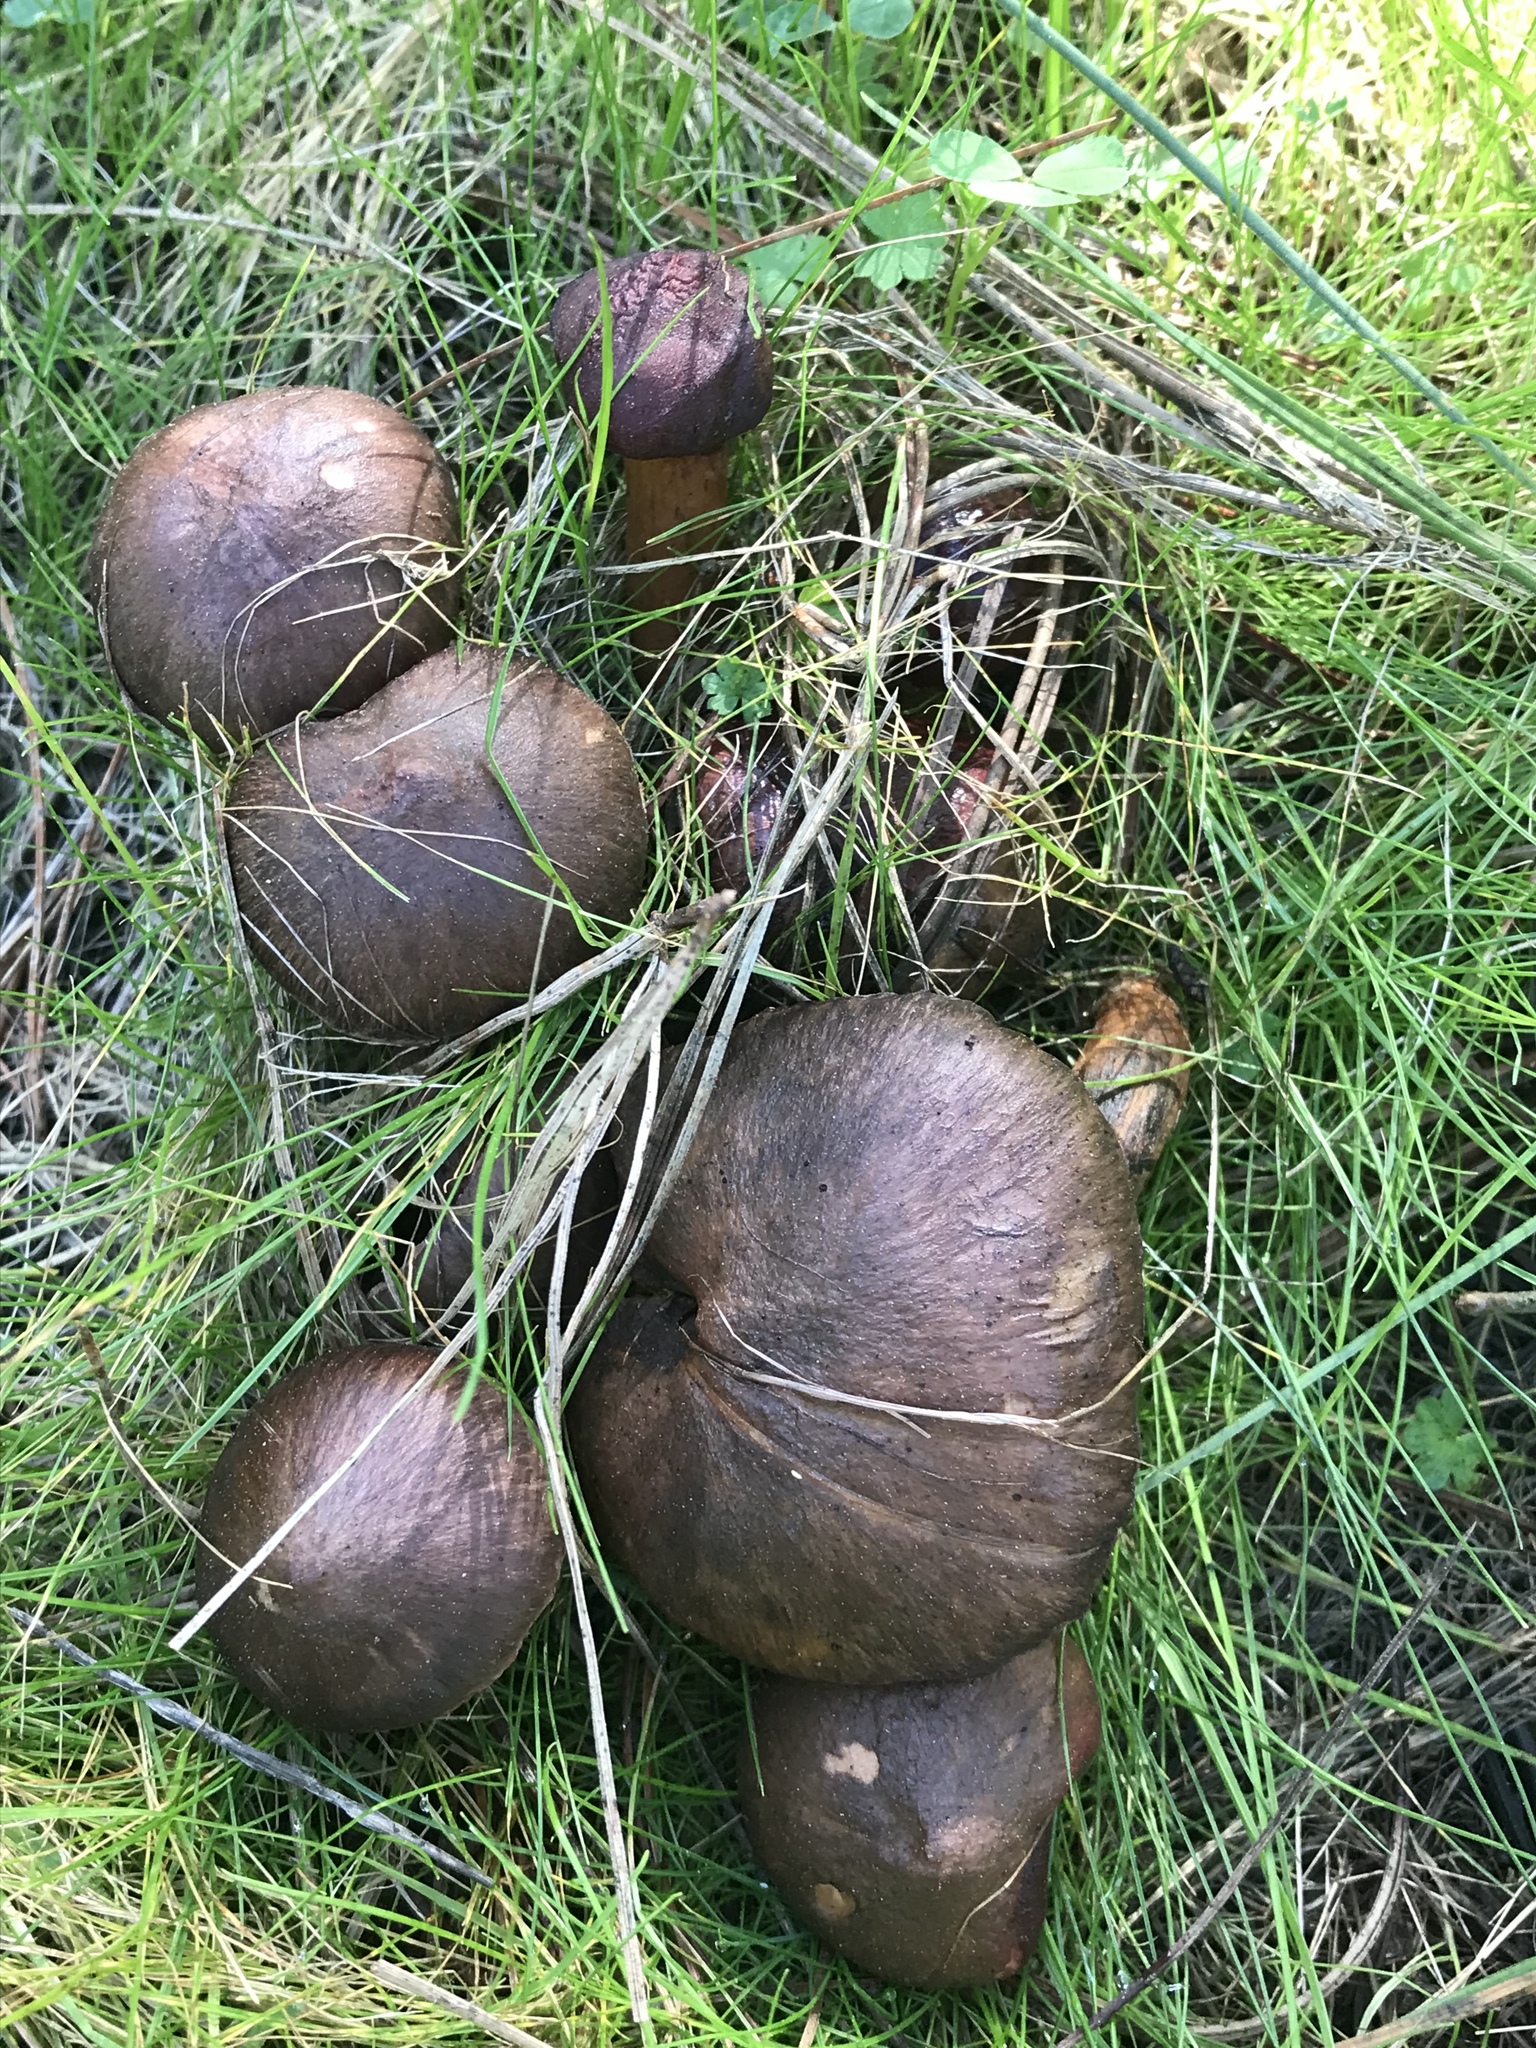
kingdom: Fungi
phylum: Basidiomycota
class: Agaricomycetes
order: Boletales
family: Gomphidiaceae
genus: Chroogomphus
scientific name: Chroogomphus vinicolor
